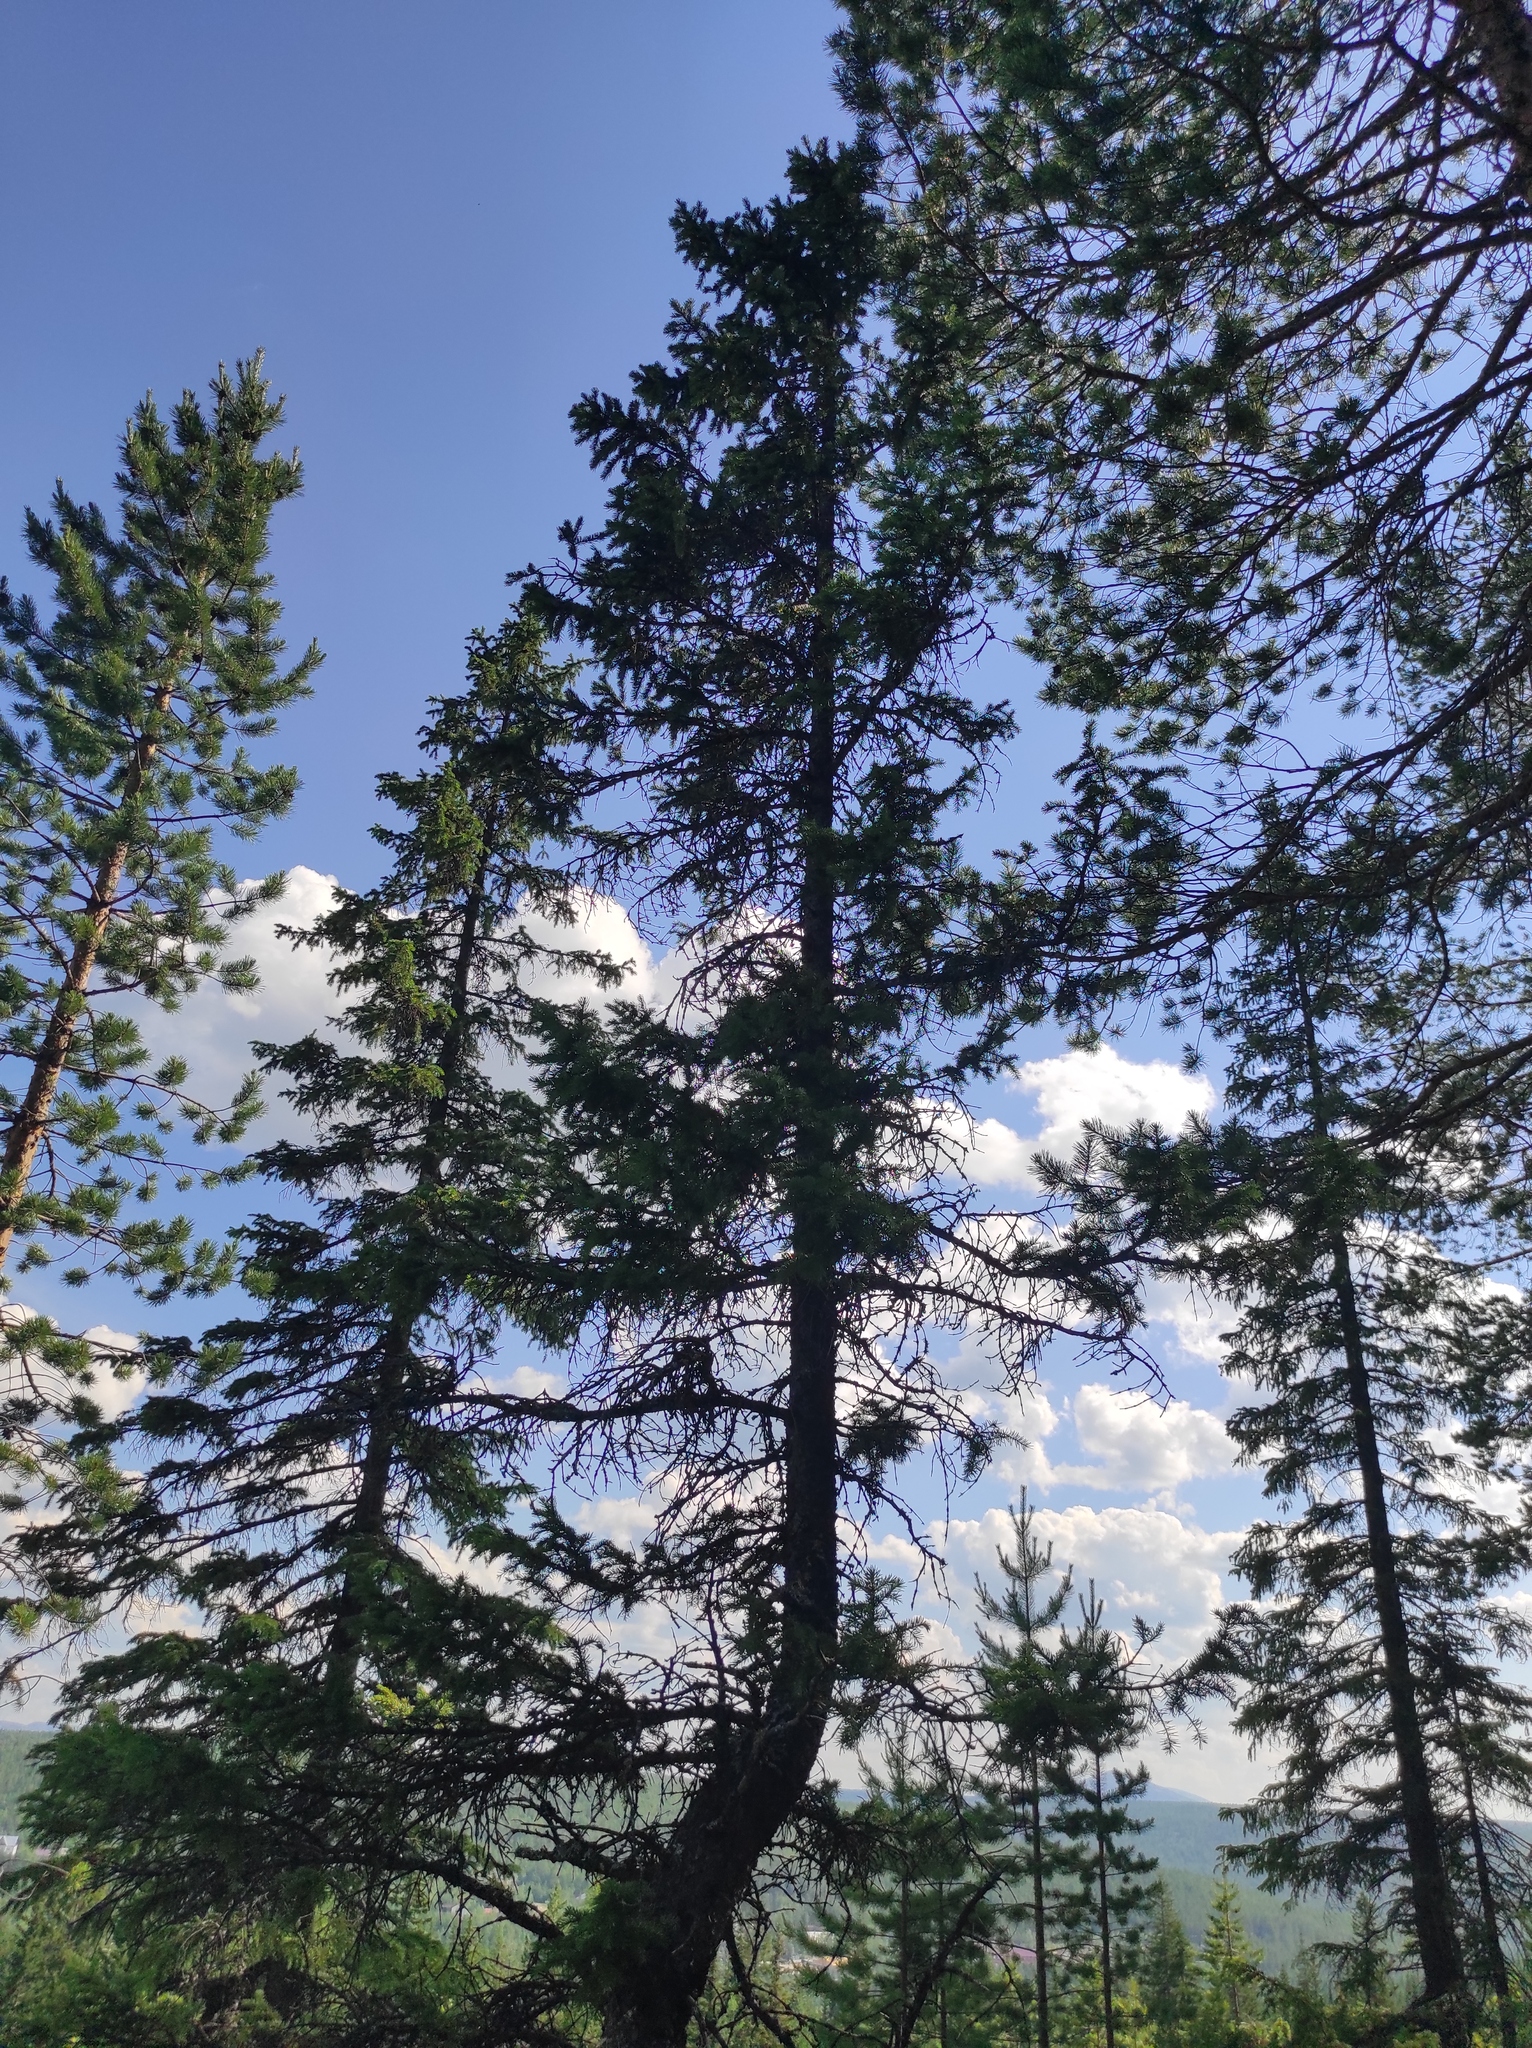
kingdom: Plantae
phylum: Tracheophyta
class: Pinopsida
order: Pinales
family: Pinaceae
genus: Pinus
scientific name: Pinus sylvestris
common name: Scots pine
